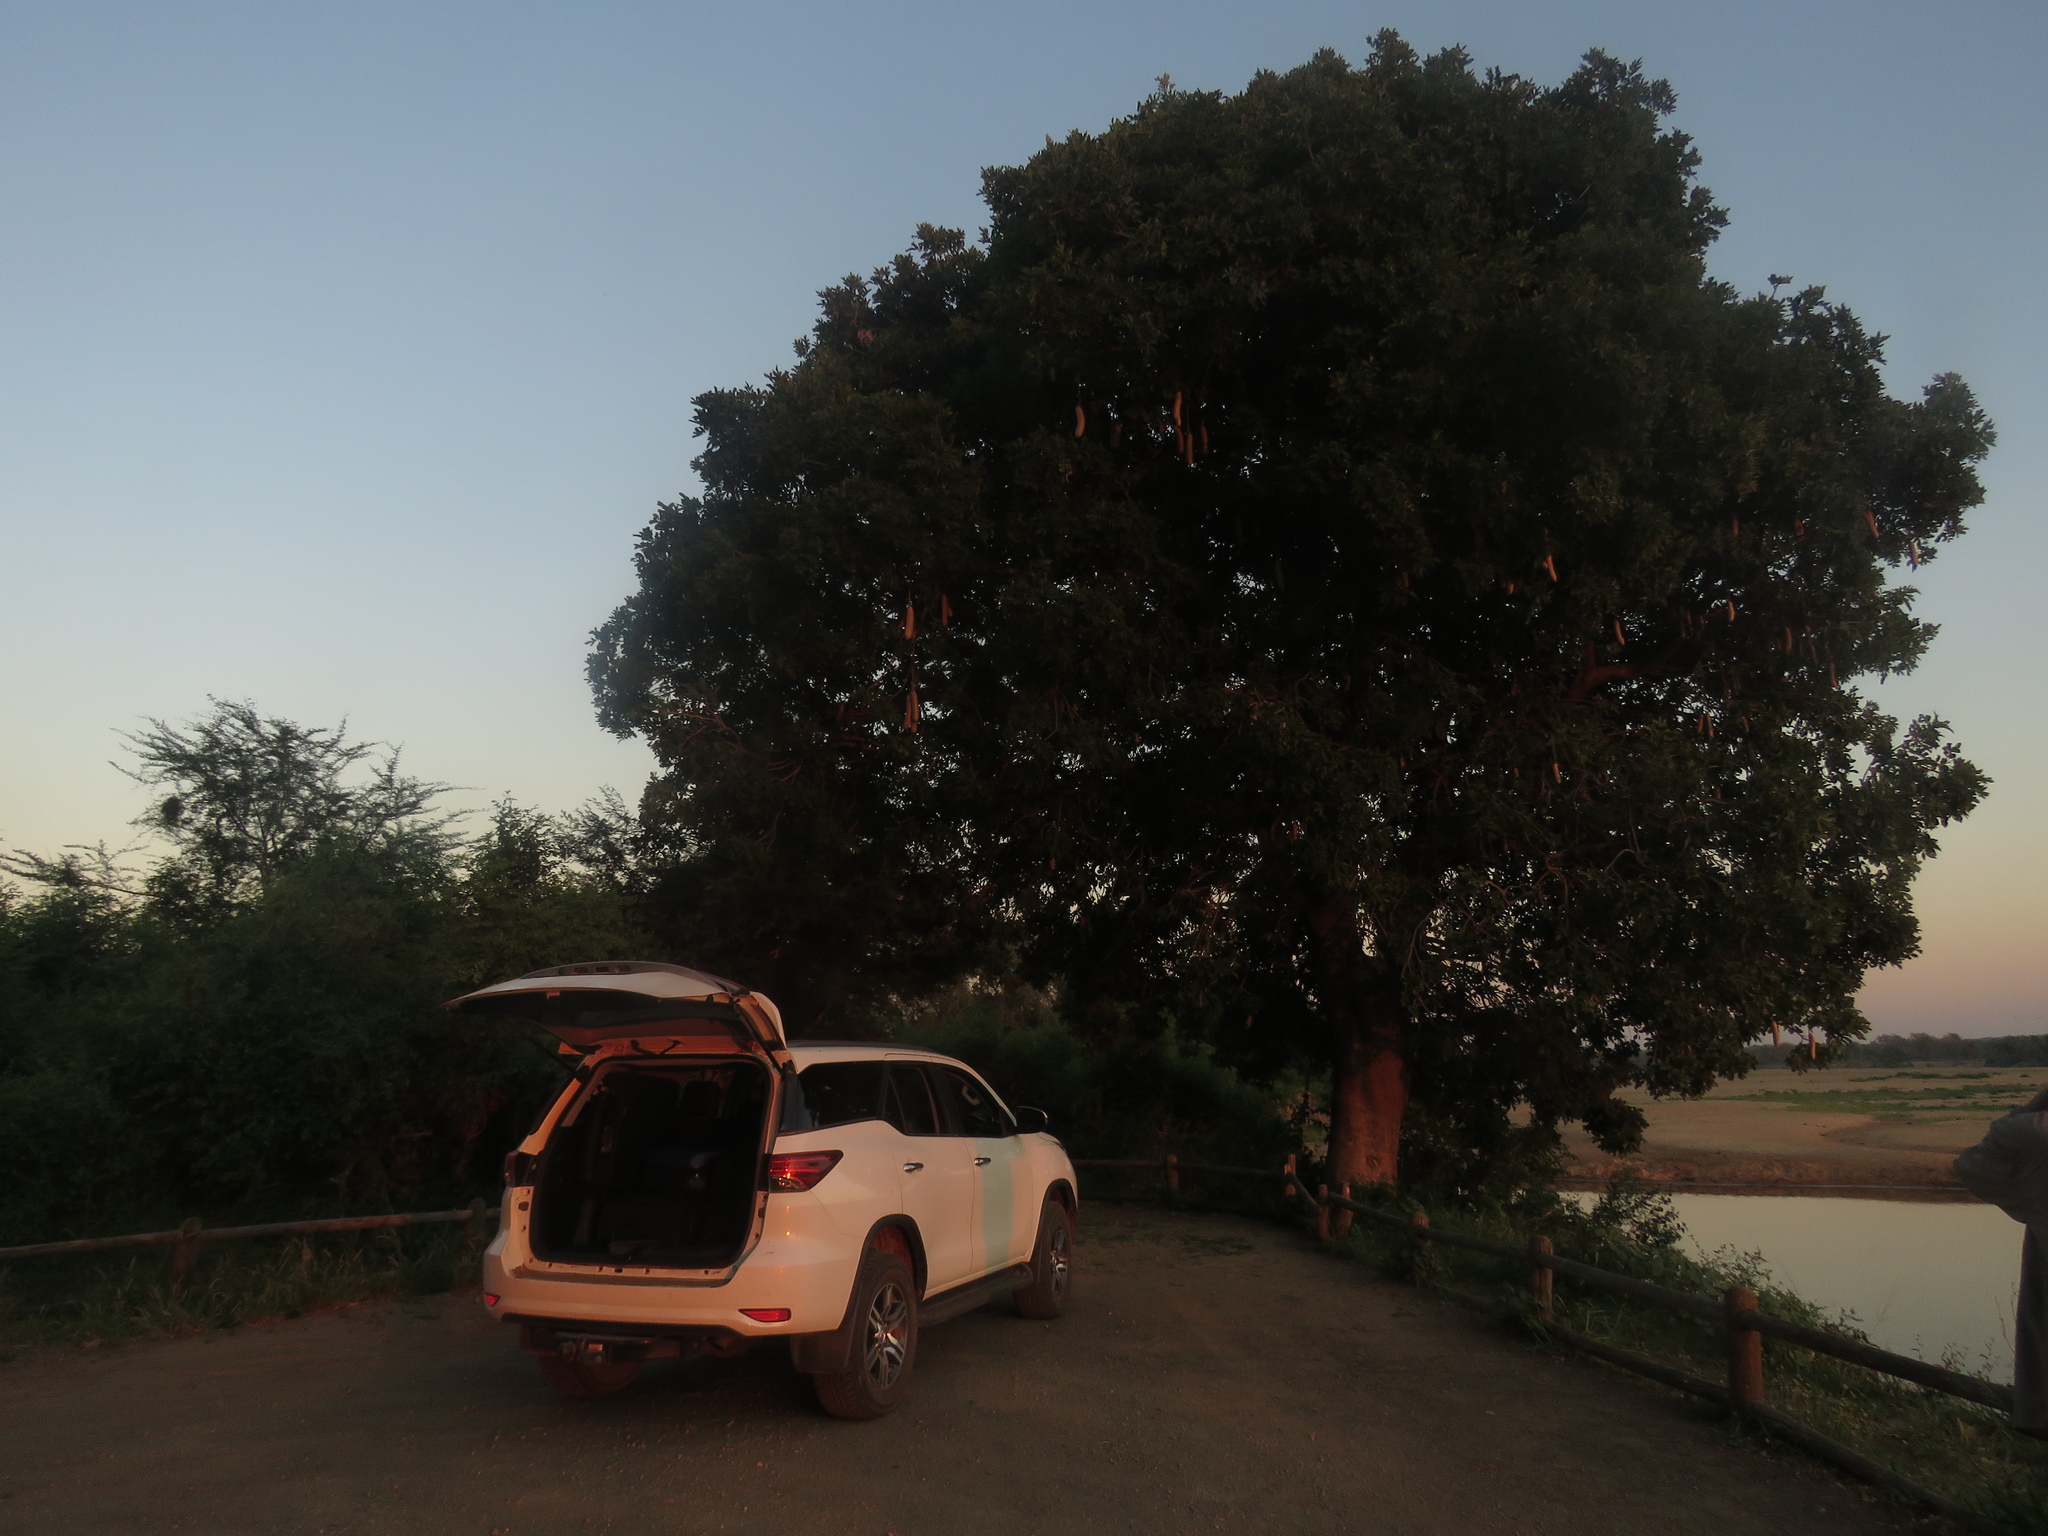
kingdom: Plantae
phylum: Tracheophyta
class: Magnoliopsida
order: Lamiales
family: Bignoniaceae
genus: Kigelia
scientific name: Kigelia africana
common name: Sausage tree
